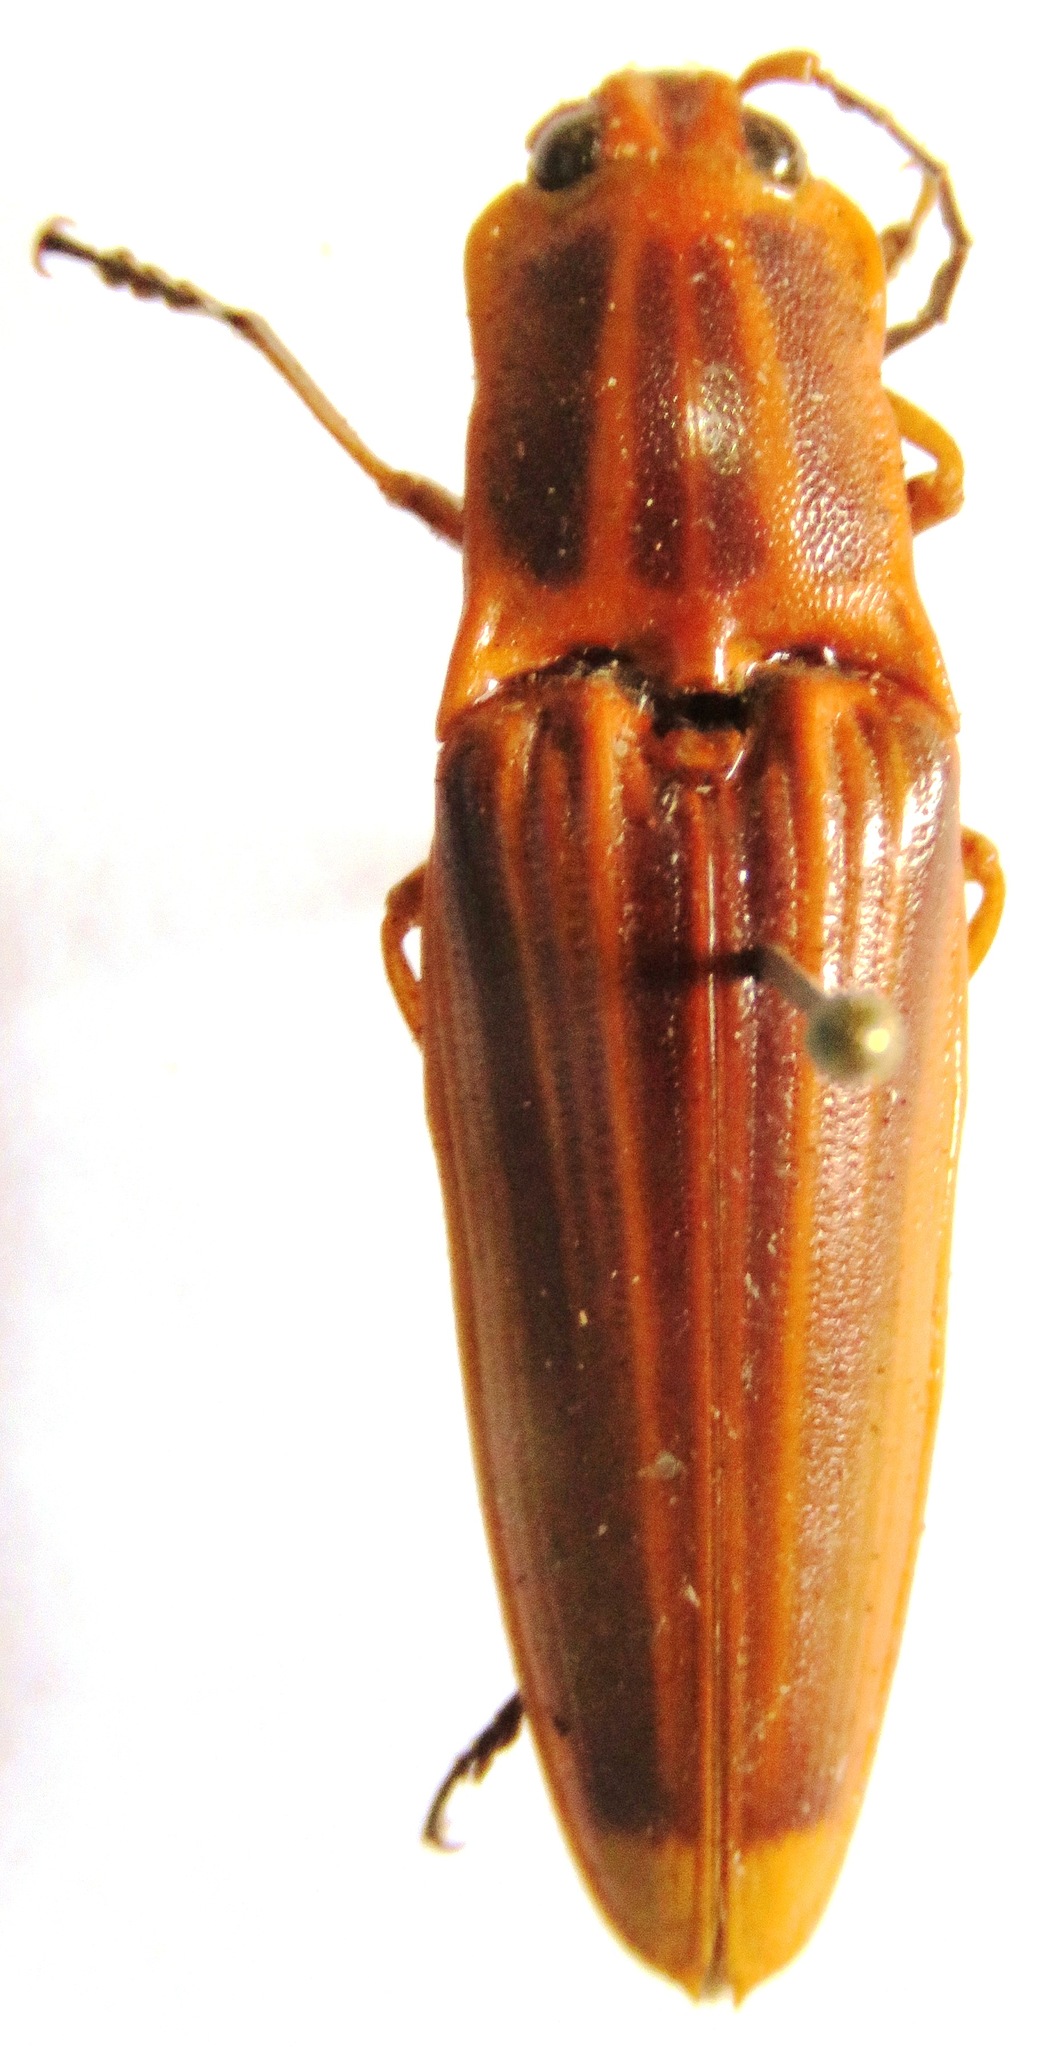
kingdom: Animalia
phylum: Arthropoda
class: Insecta
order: Coleoptera
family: Elateridae
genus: Semiotus
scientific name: Semiotus ligneus
